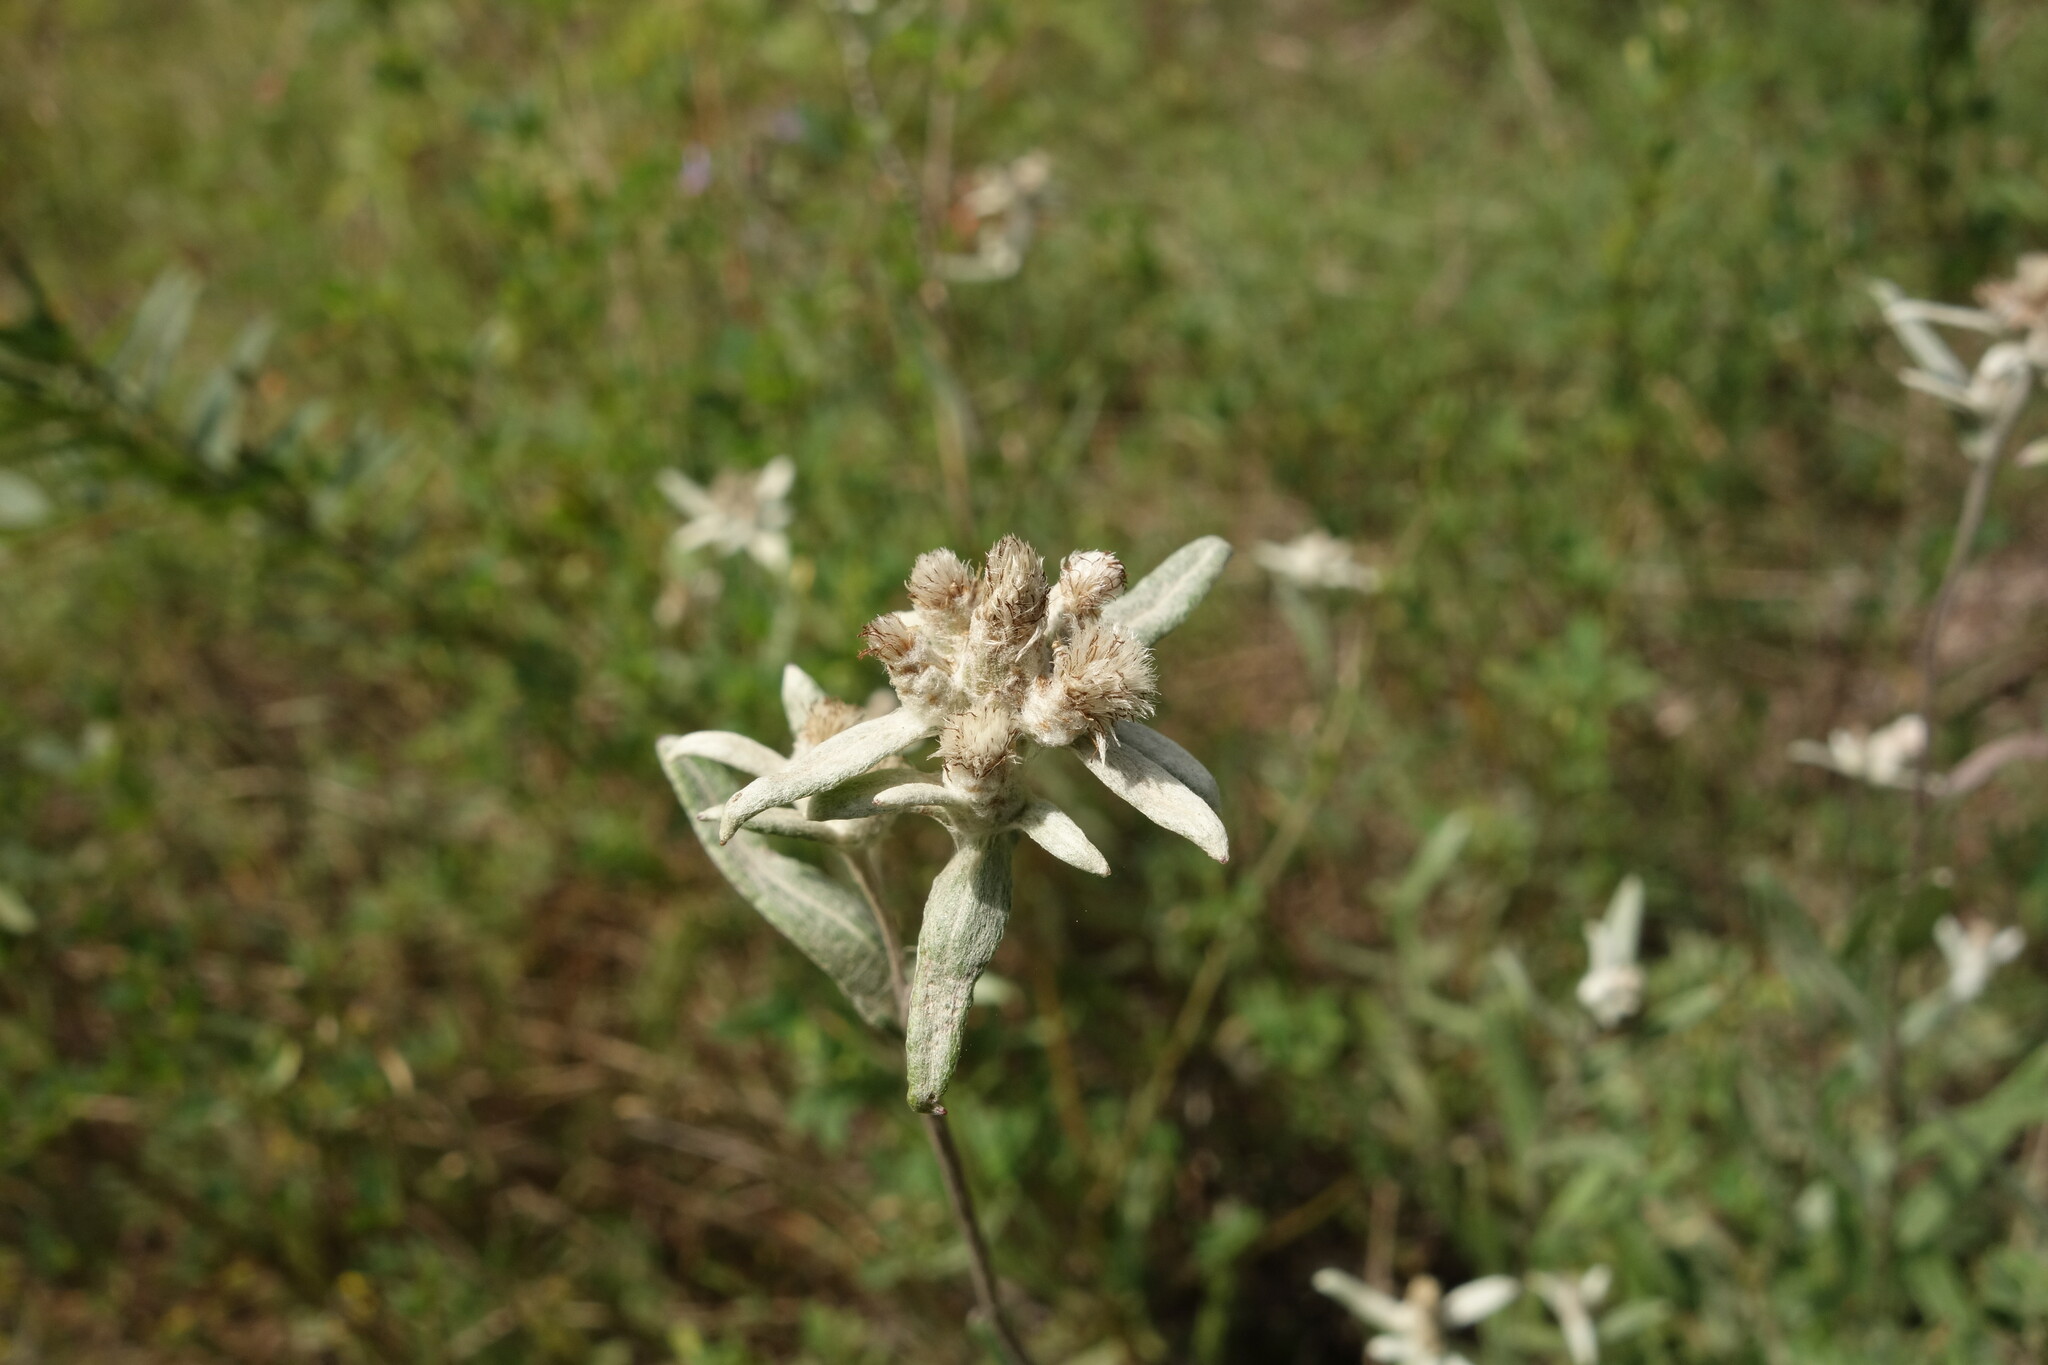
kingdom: Plantae
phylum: Tracheophyta
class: Magnoliopsida
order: Asterales
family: Asteraceae
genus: Leontopodium
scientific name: Leontopodium leontopodioides
